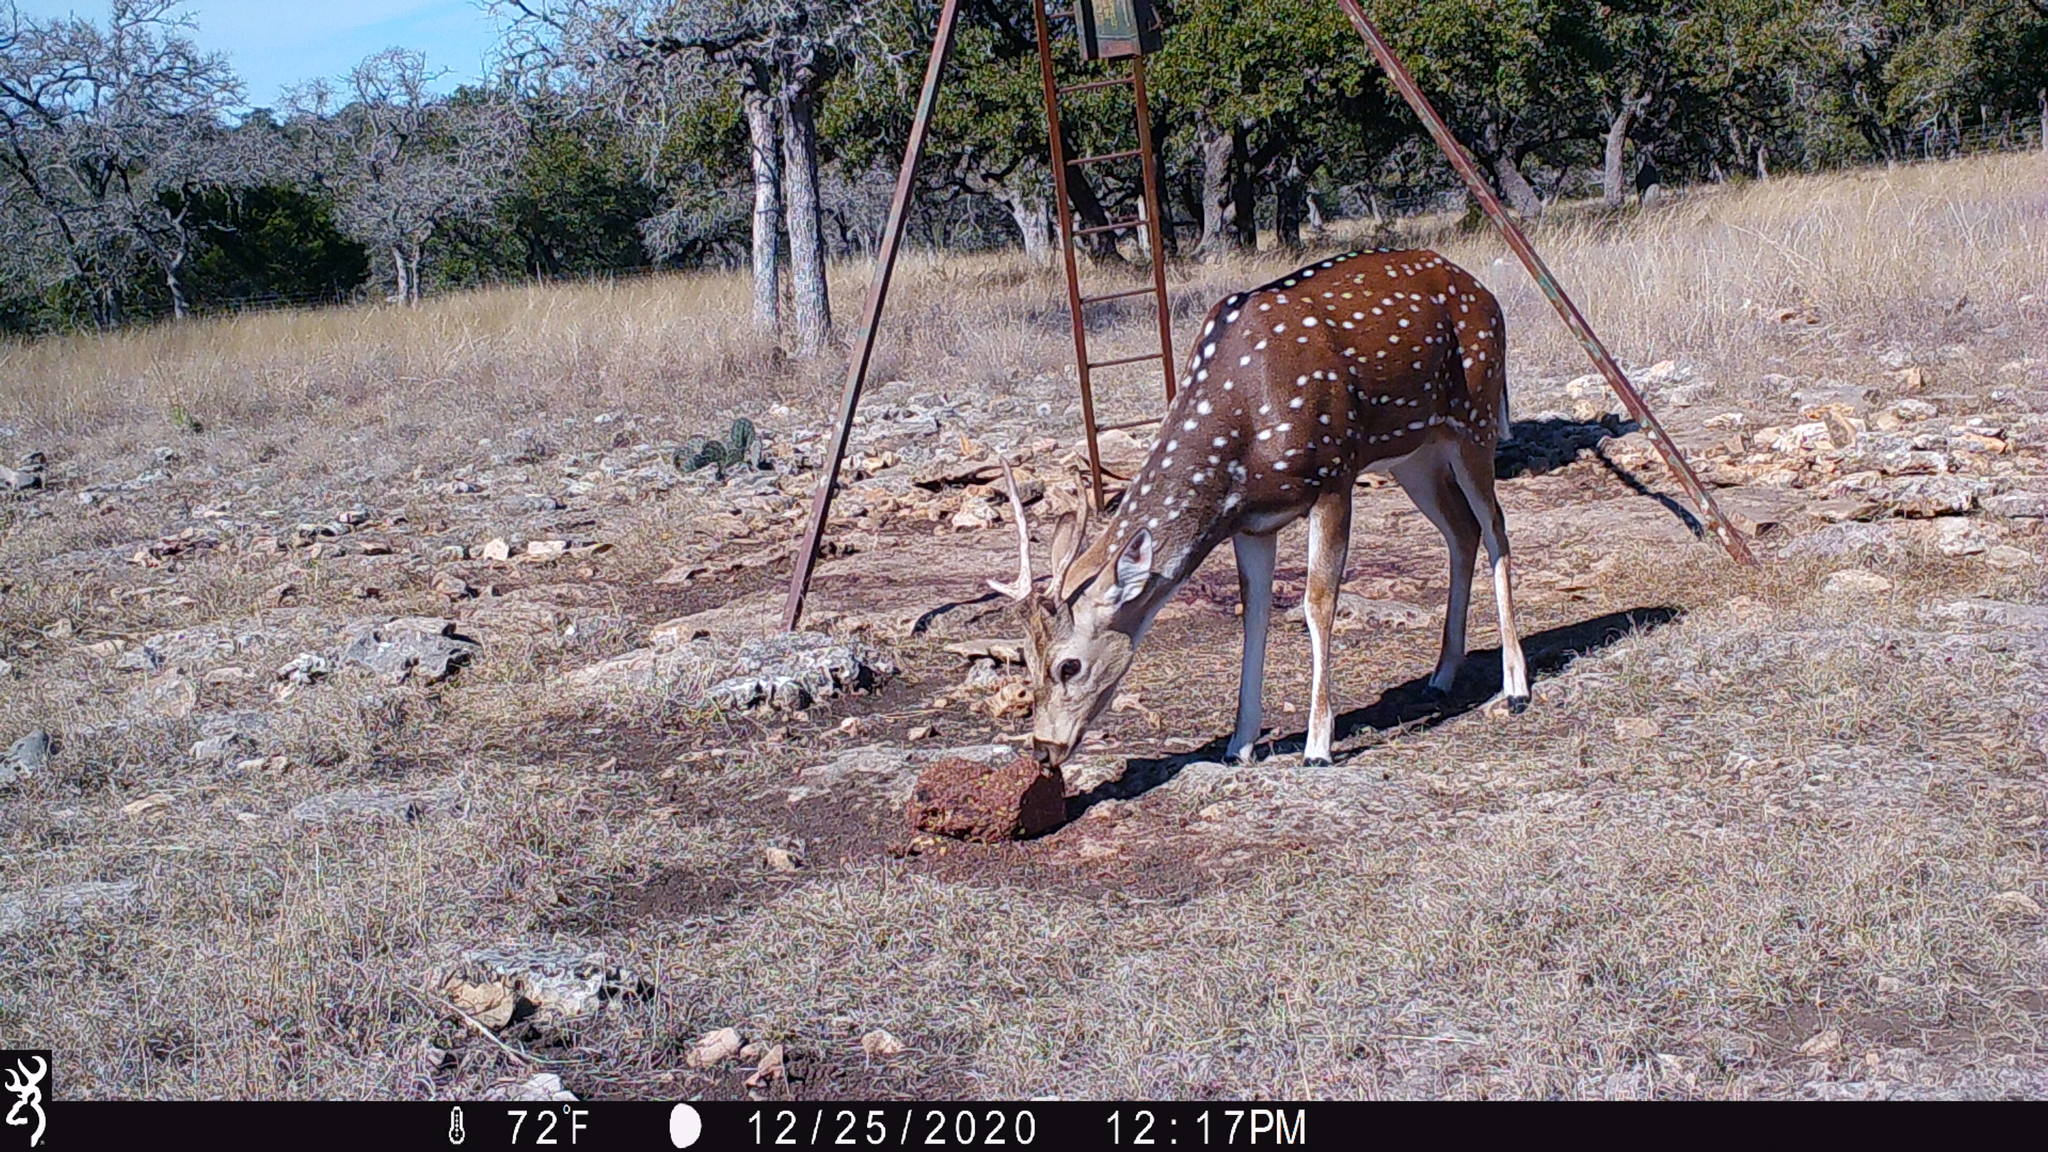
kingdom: Animalia
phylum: Chordata
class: Mammalia
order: Artiodactyla
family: Cervidae
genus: Axis
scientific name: Axis axis
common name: Chital
